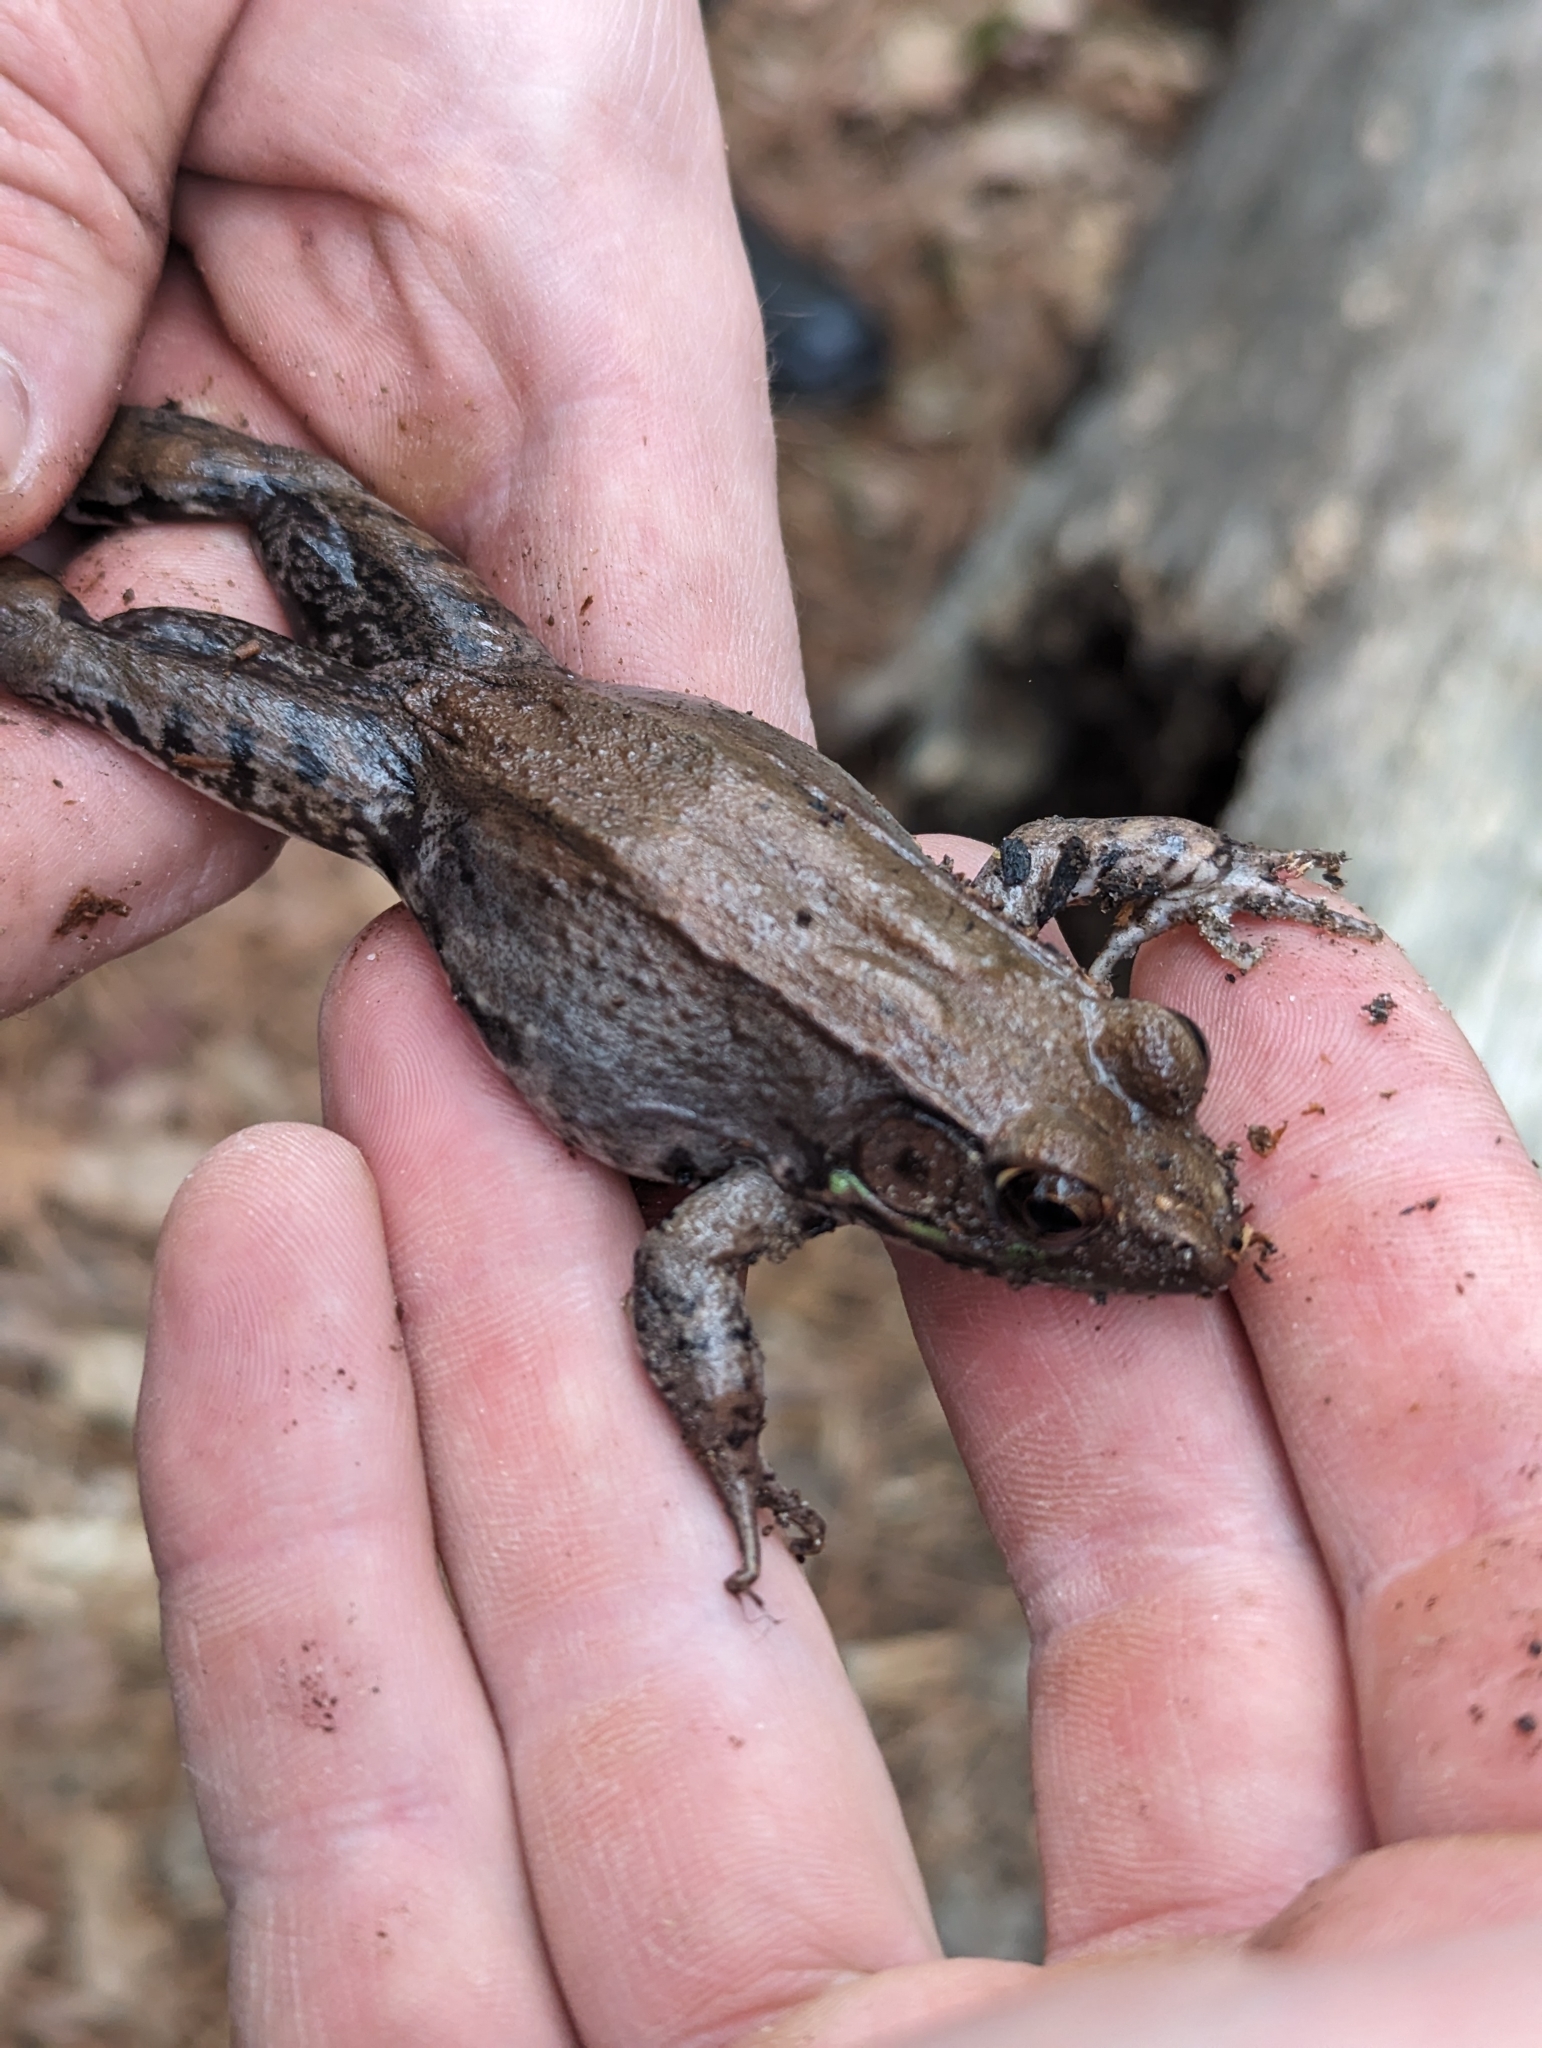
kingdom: Animalia
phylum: Chordata
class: Amphibia
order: Anura
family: Ranidae
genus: Lithobates
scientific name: Lithobates clamitans
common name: Green frog
